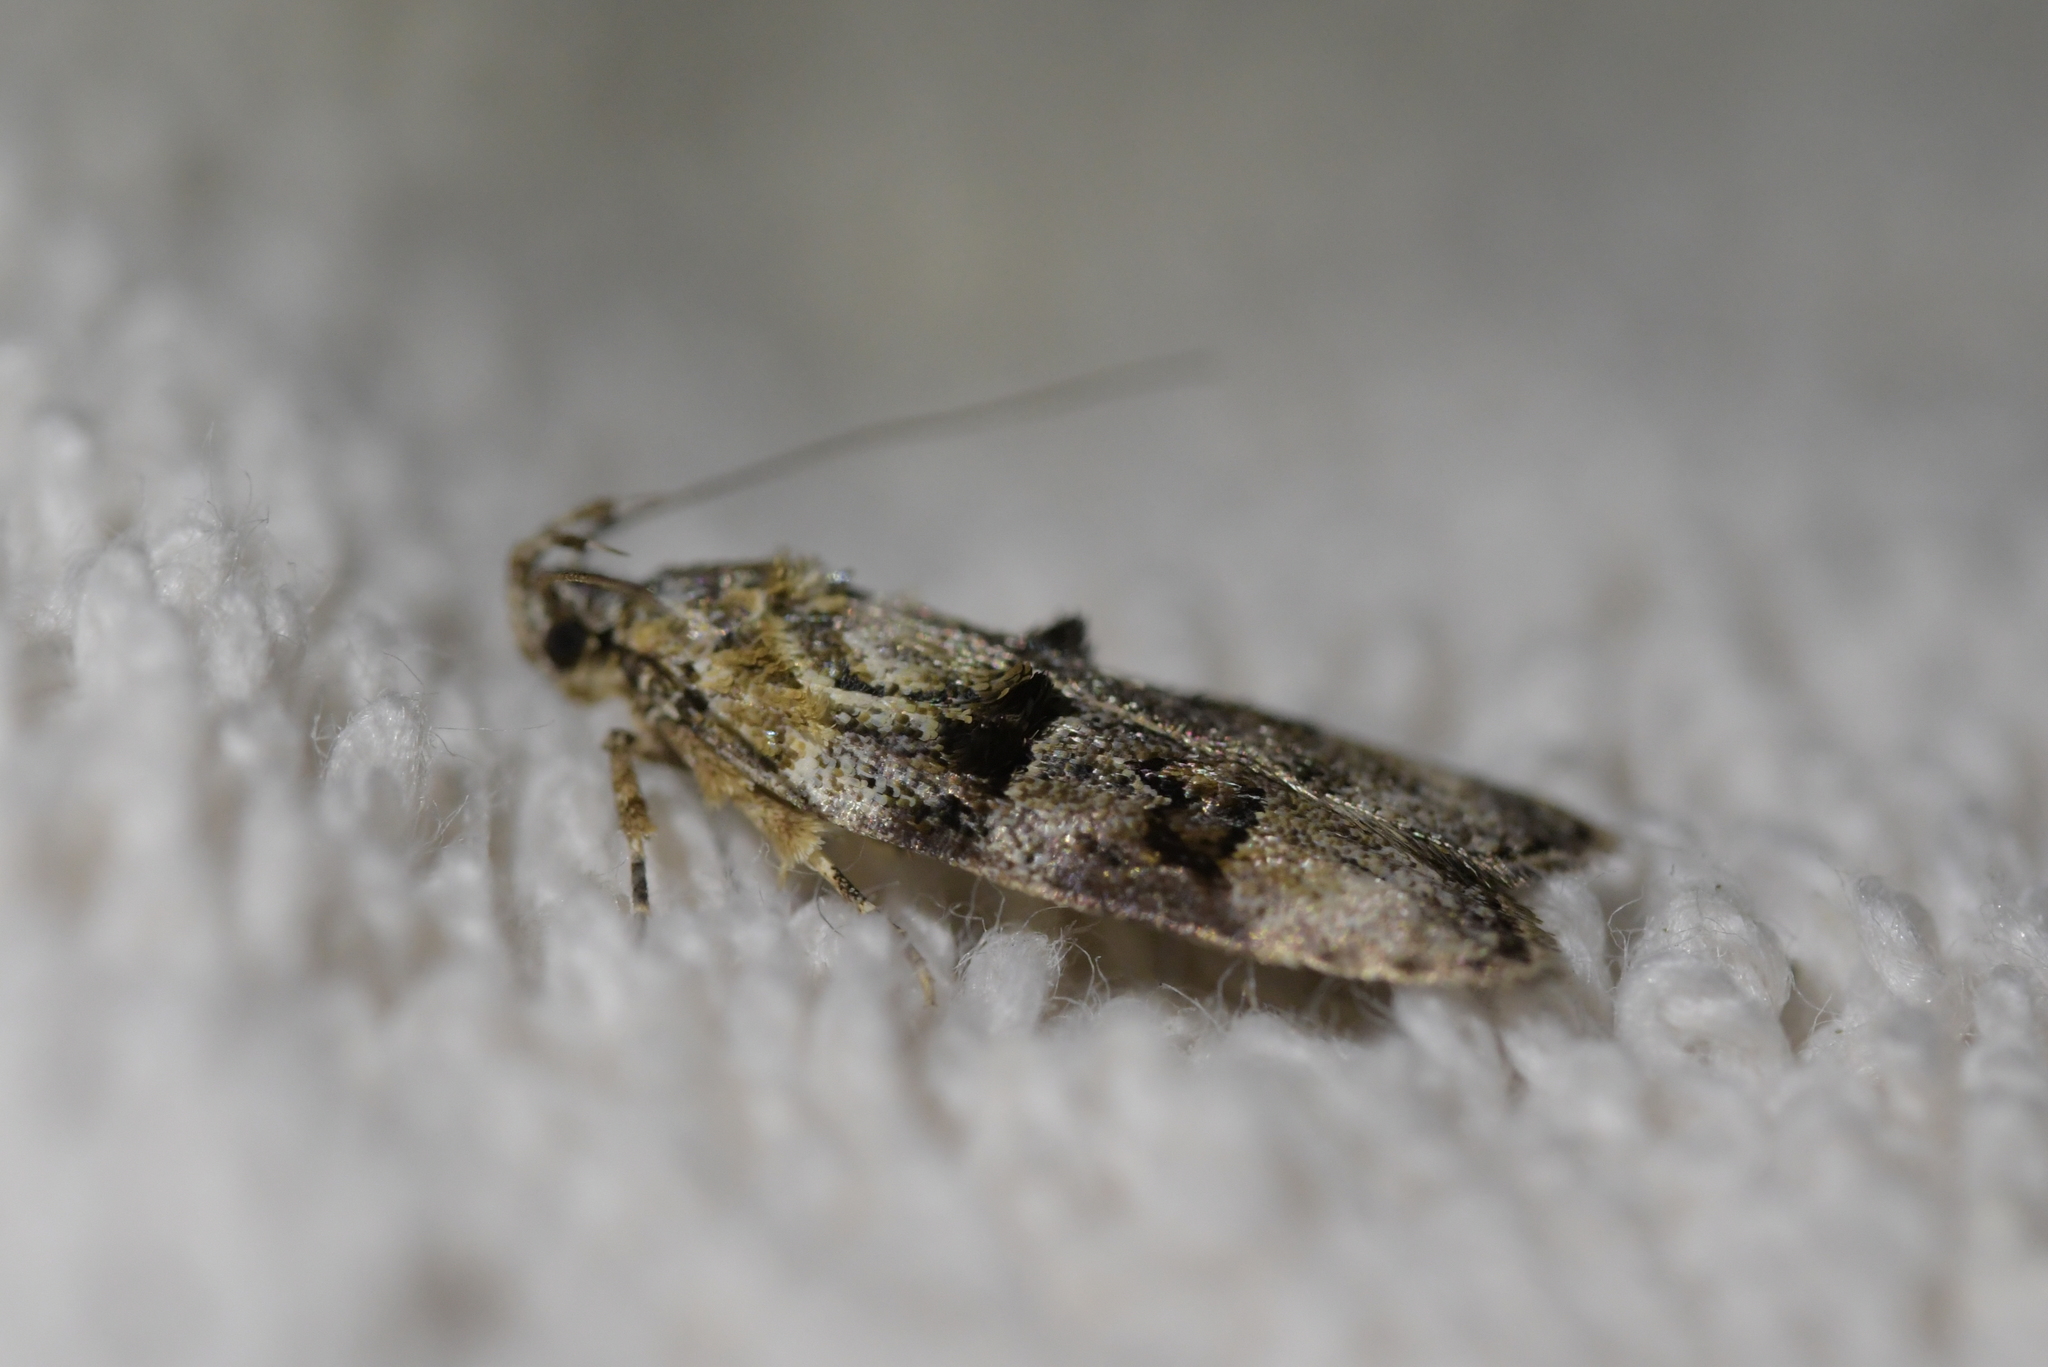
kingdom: Animalia
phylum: Arthropoda
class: Insecta
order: Lepidoptera
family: Oecophoridae
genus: Izatha
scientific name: Izatha metadelta
